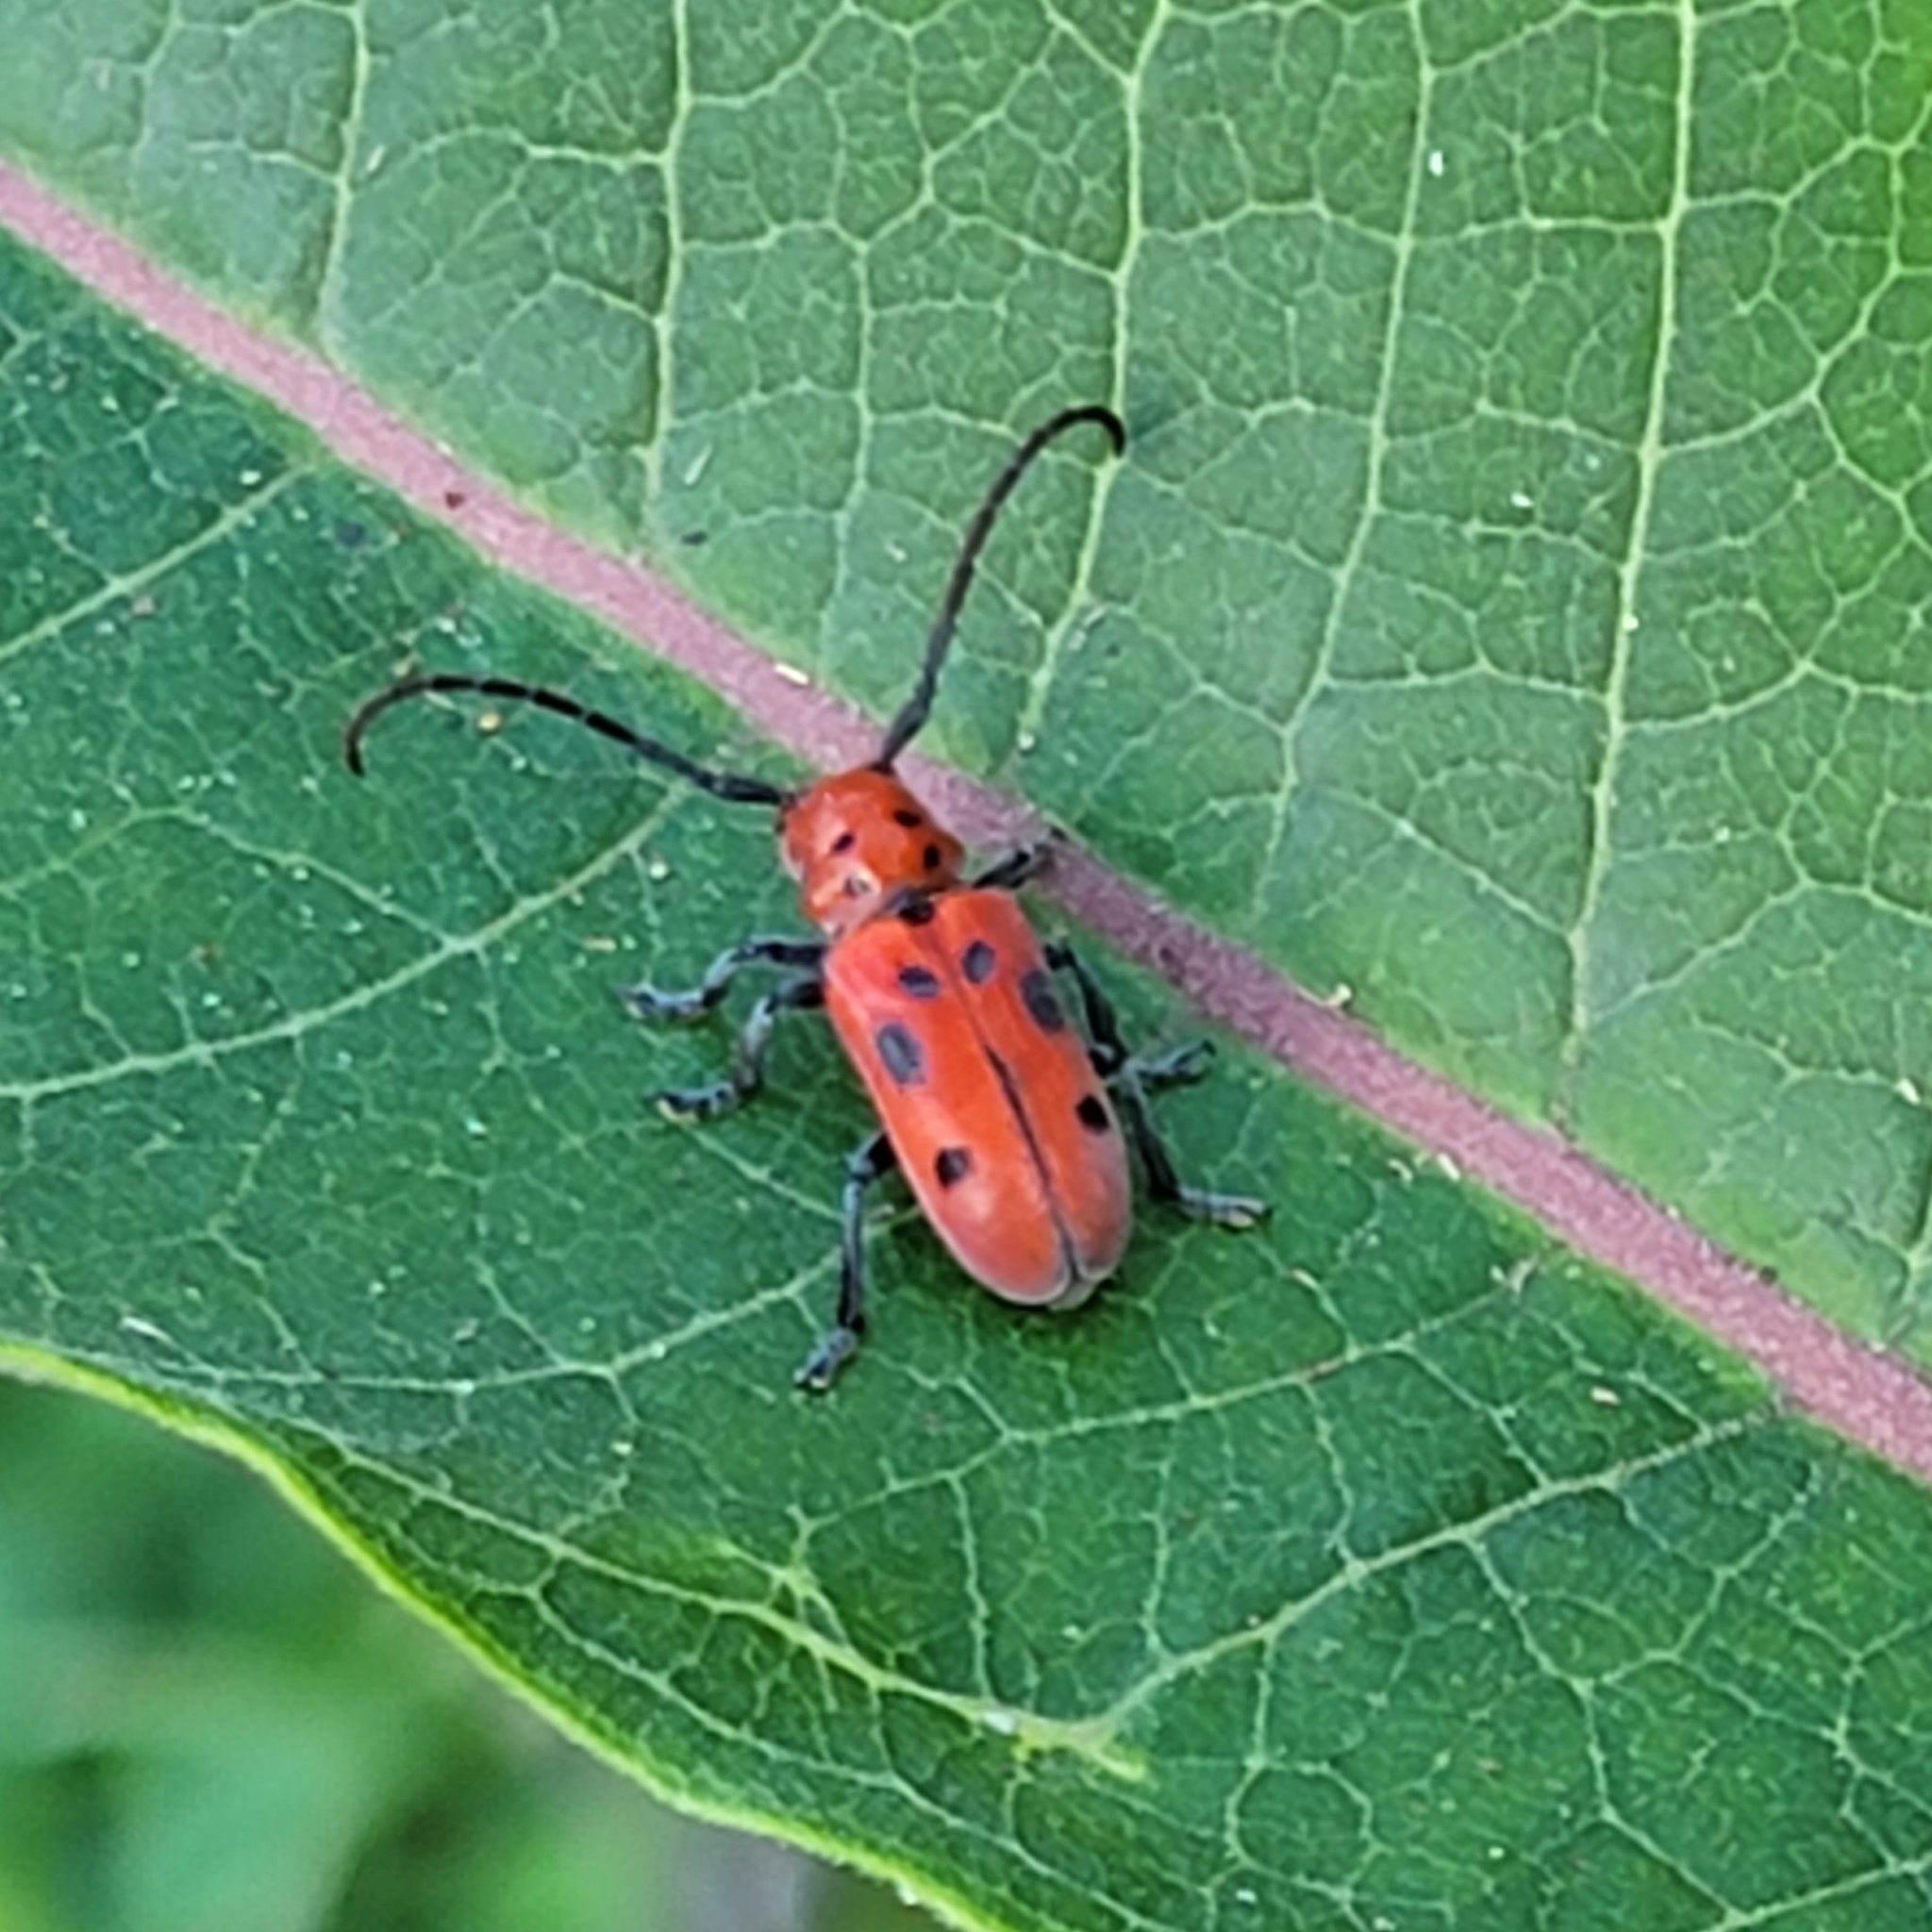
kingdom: Animalia
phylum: Arthropoda
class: Insecta
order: Coleoptera
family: Cerambycidae
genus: Tetraopes
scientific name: Tetraopes tetrophthalmus
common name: Red milkweed beetle
